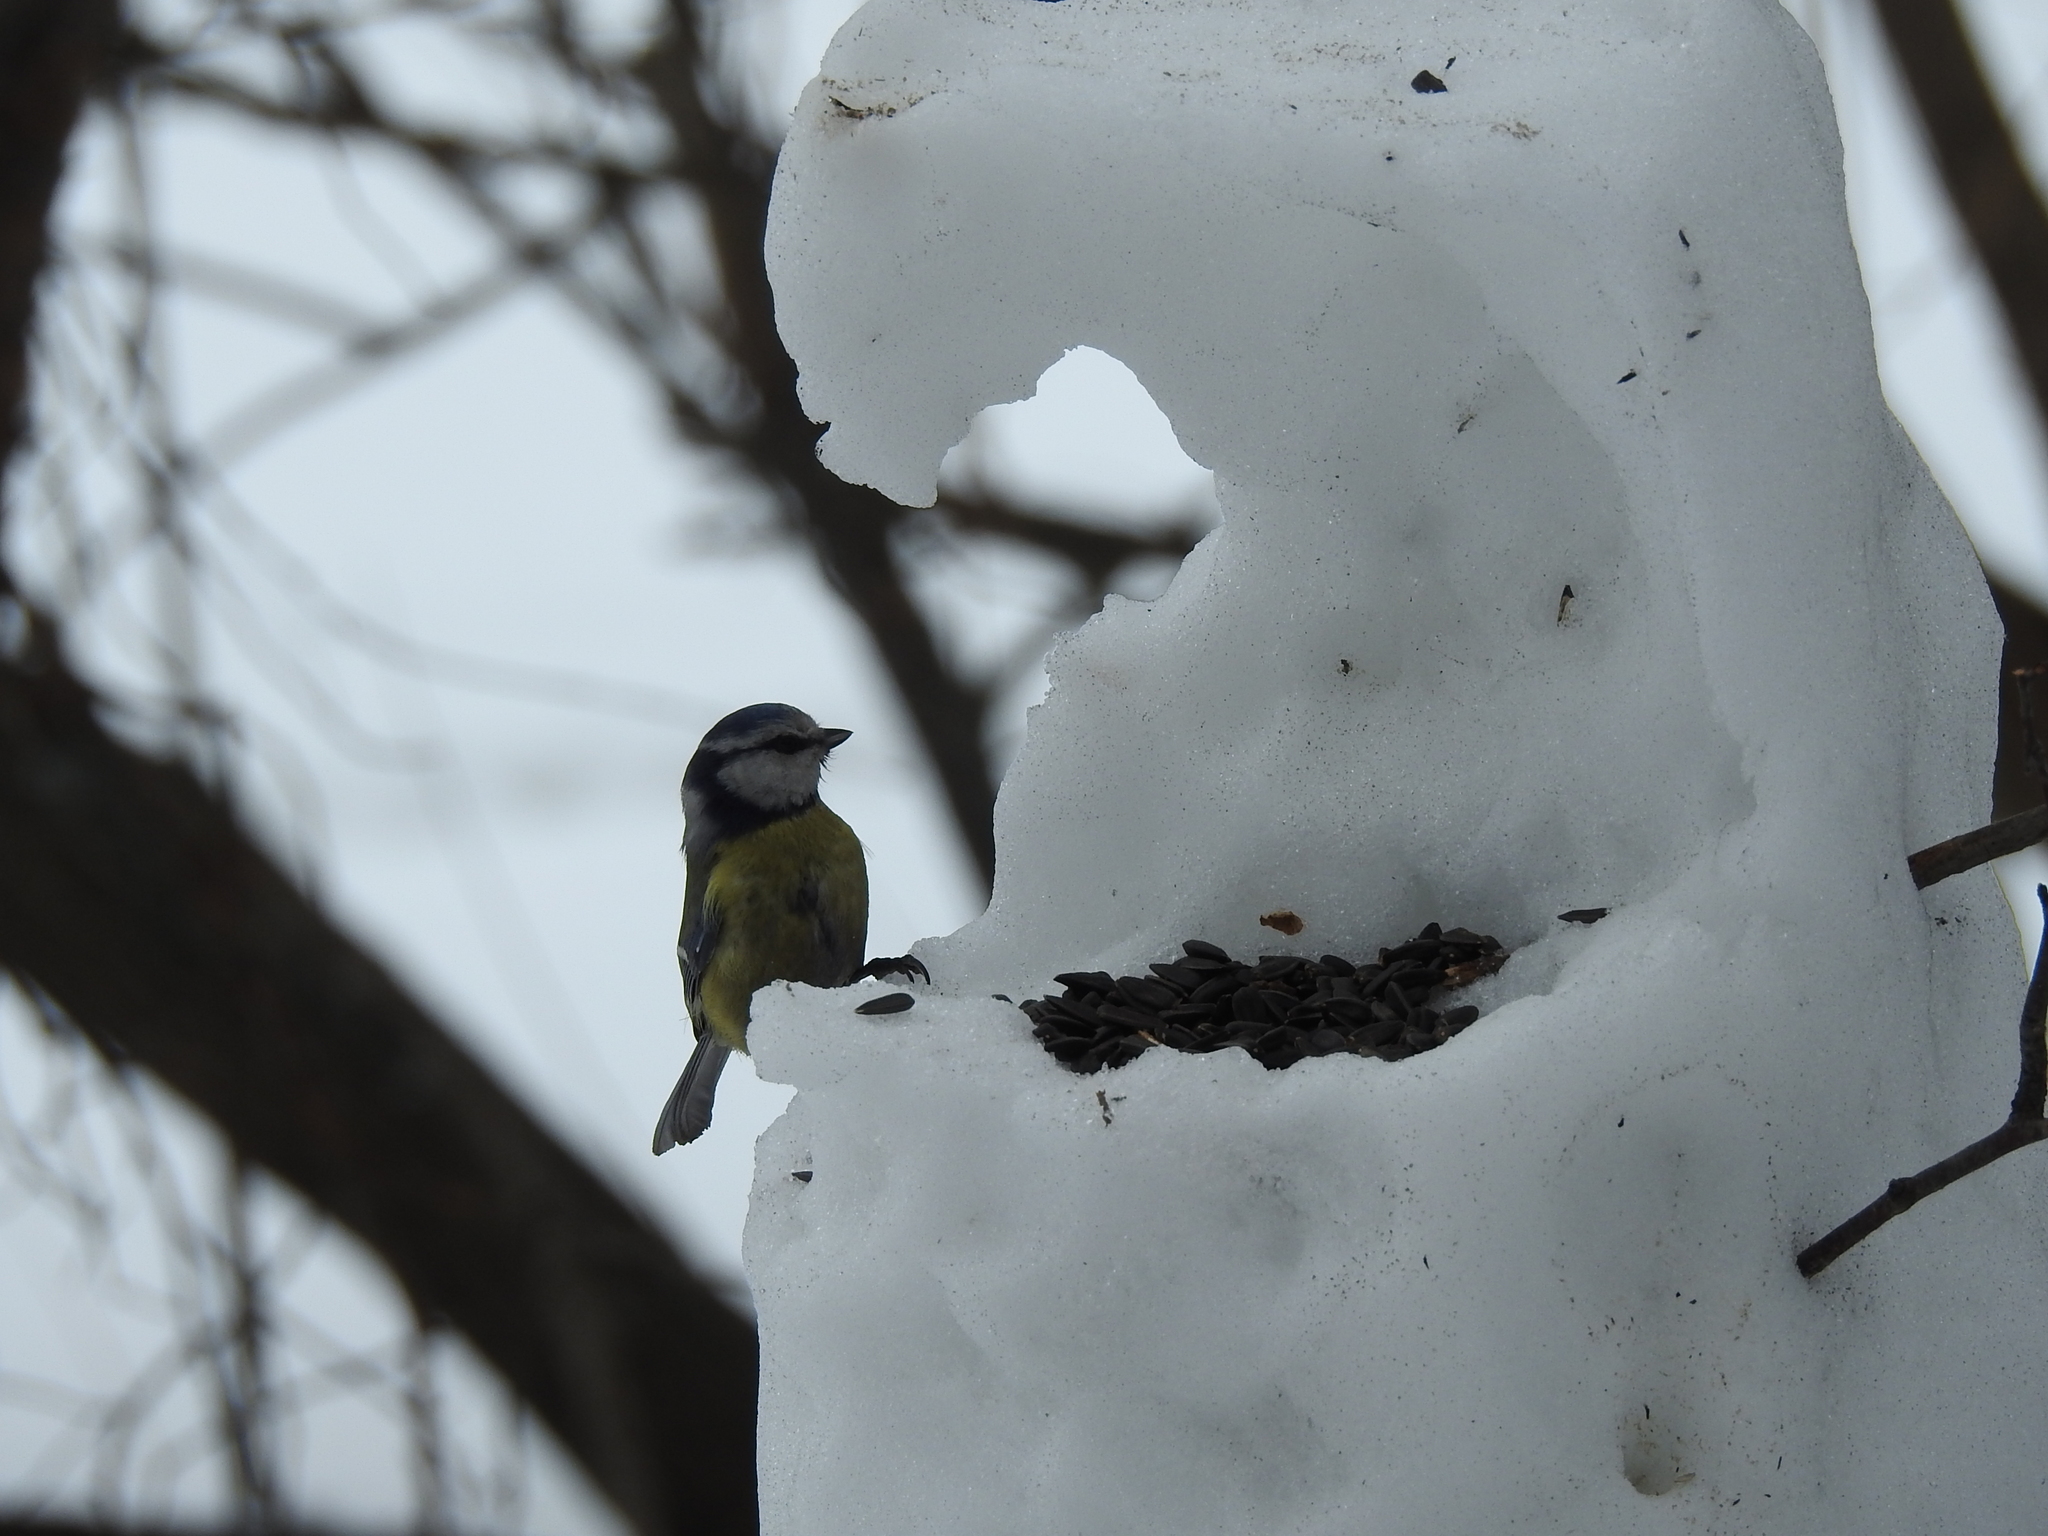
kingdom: Animalia
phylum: Chordata
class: Aves
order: Passeriformes
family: Paridae
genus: Cyanistes
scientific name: Cyanistes caeruleus
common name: Eurasian blue tit
